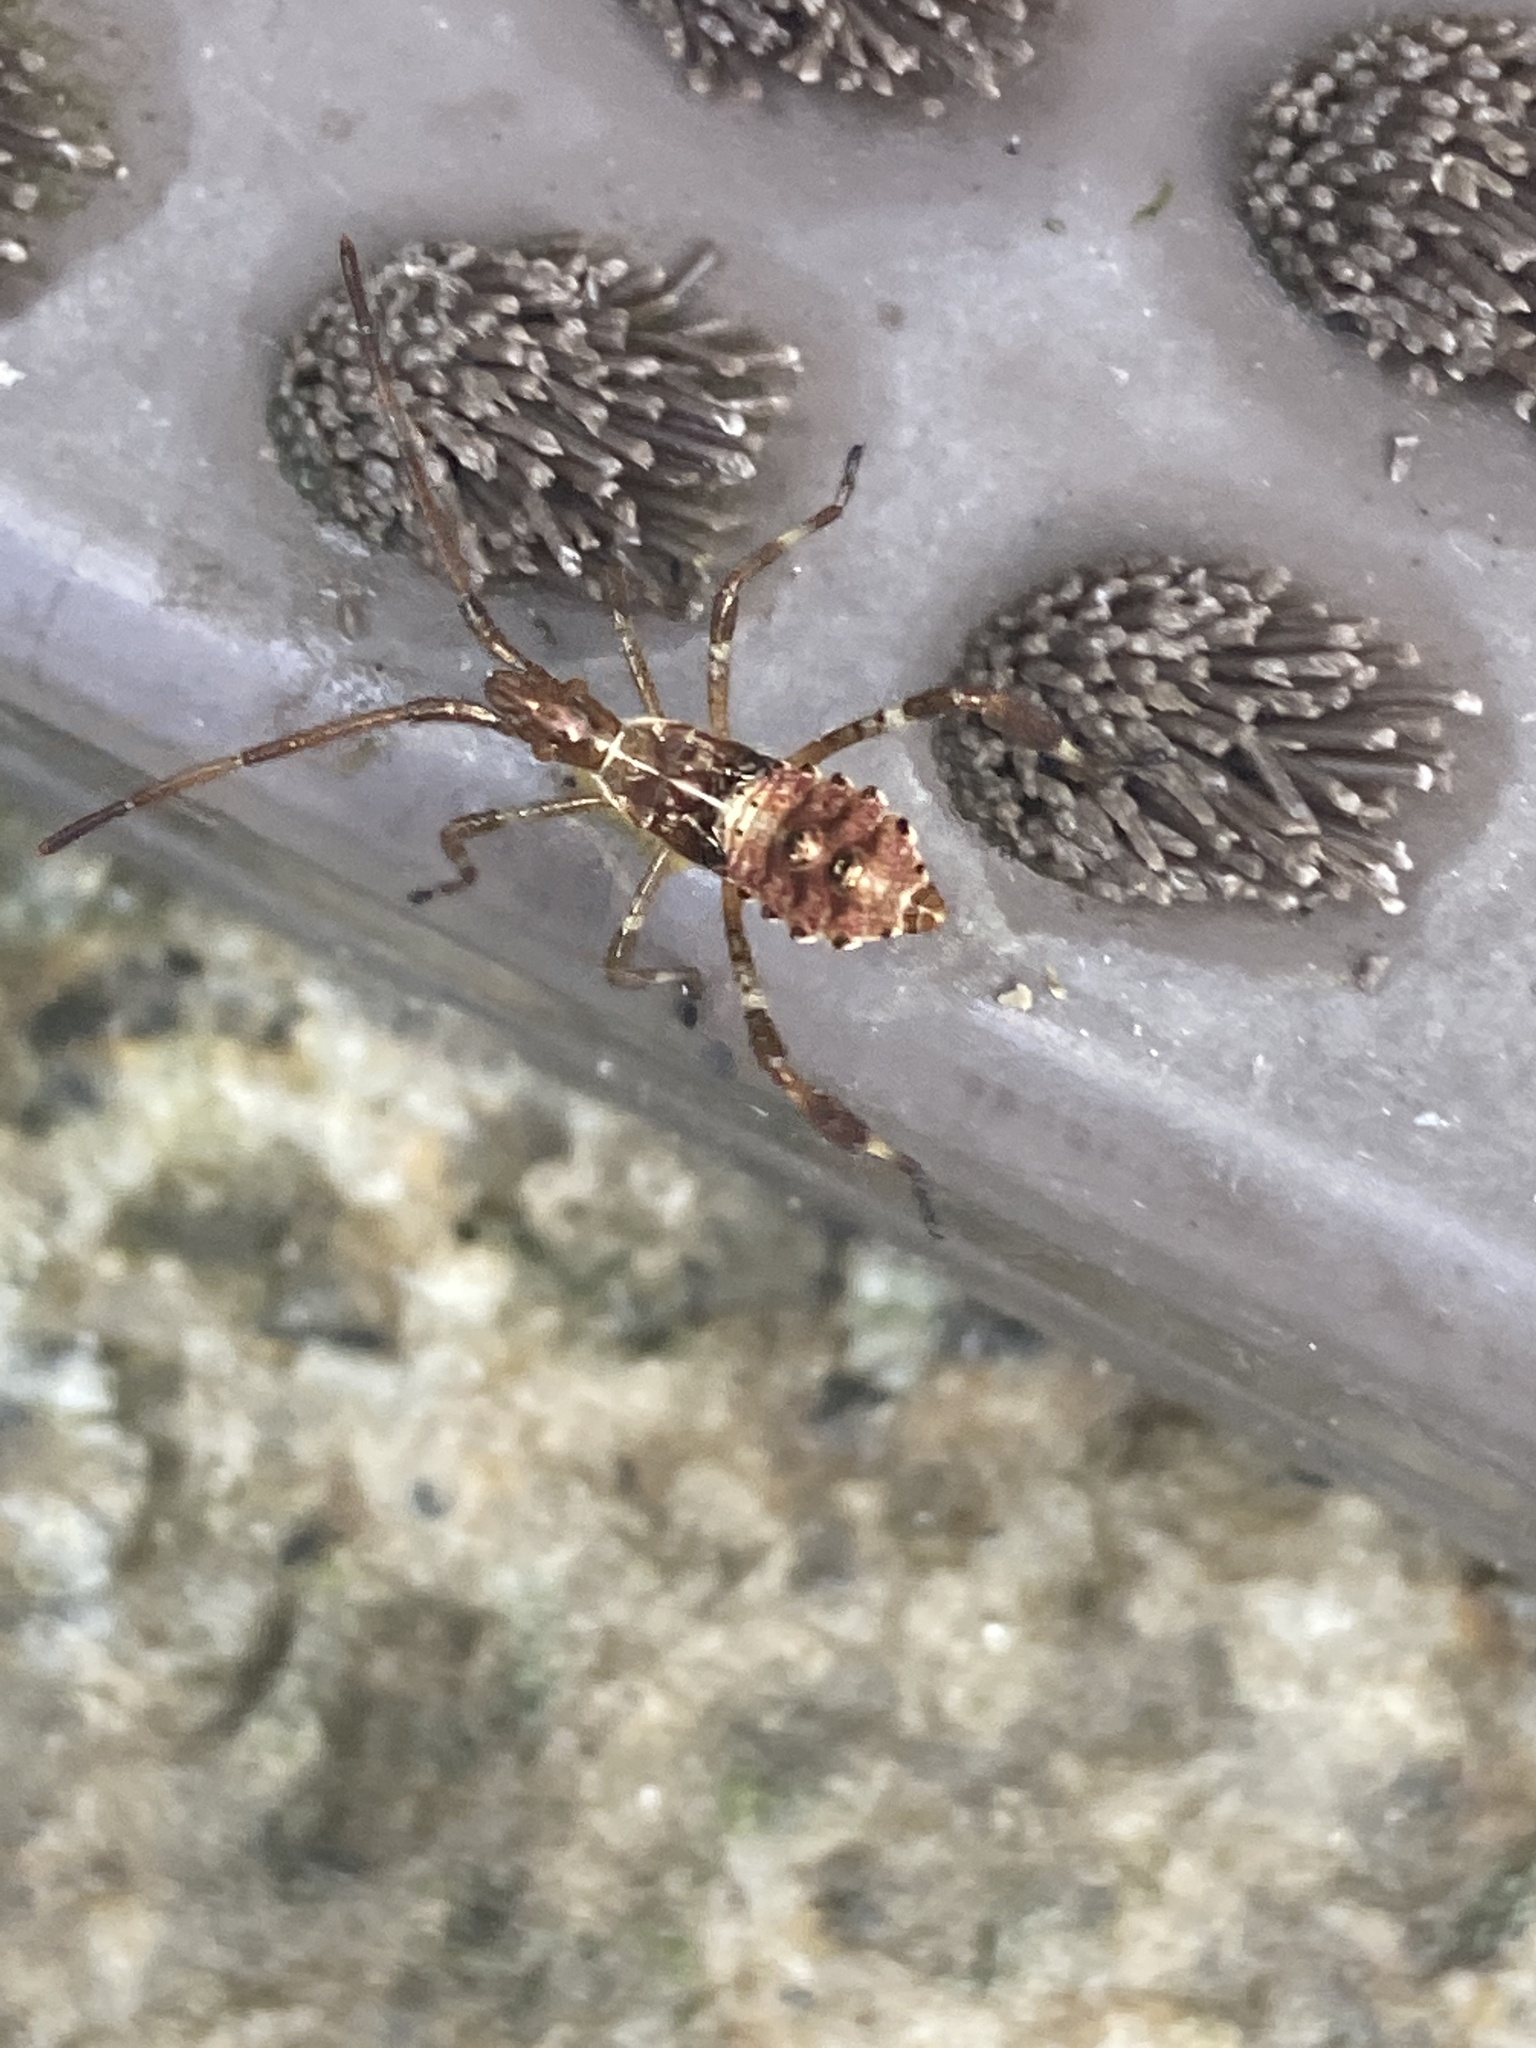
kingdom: Animalia
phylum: Arthropoda
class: Insecta
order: Hemiptera
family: Coreidae
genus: Leptoglossus
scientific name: Leptoglossus occidentalis
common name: Western conifer-seed bug
